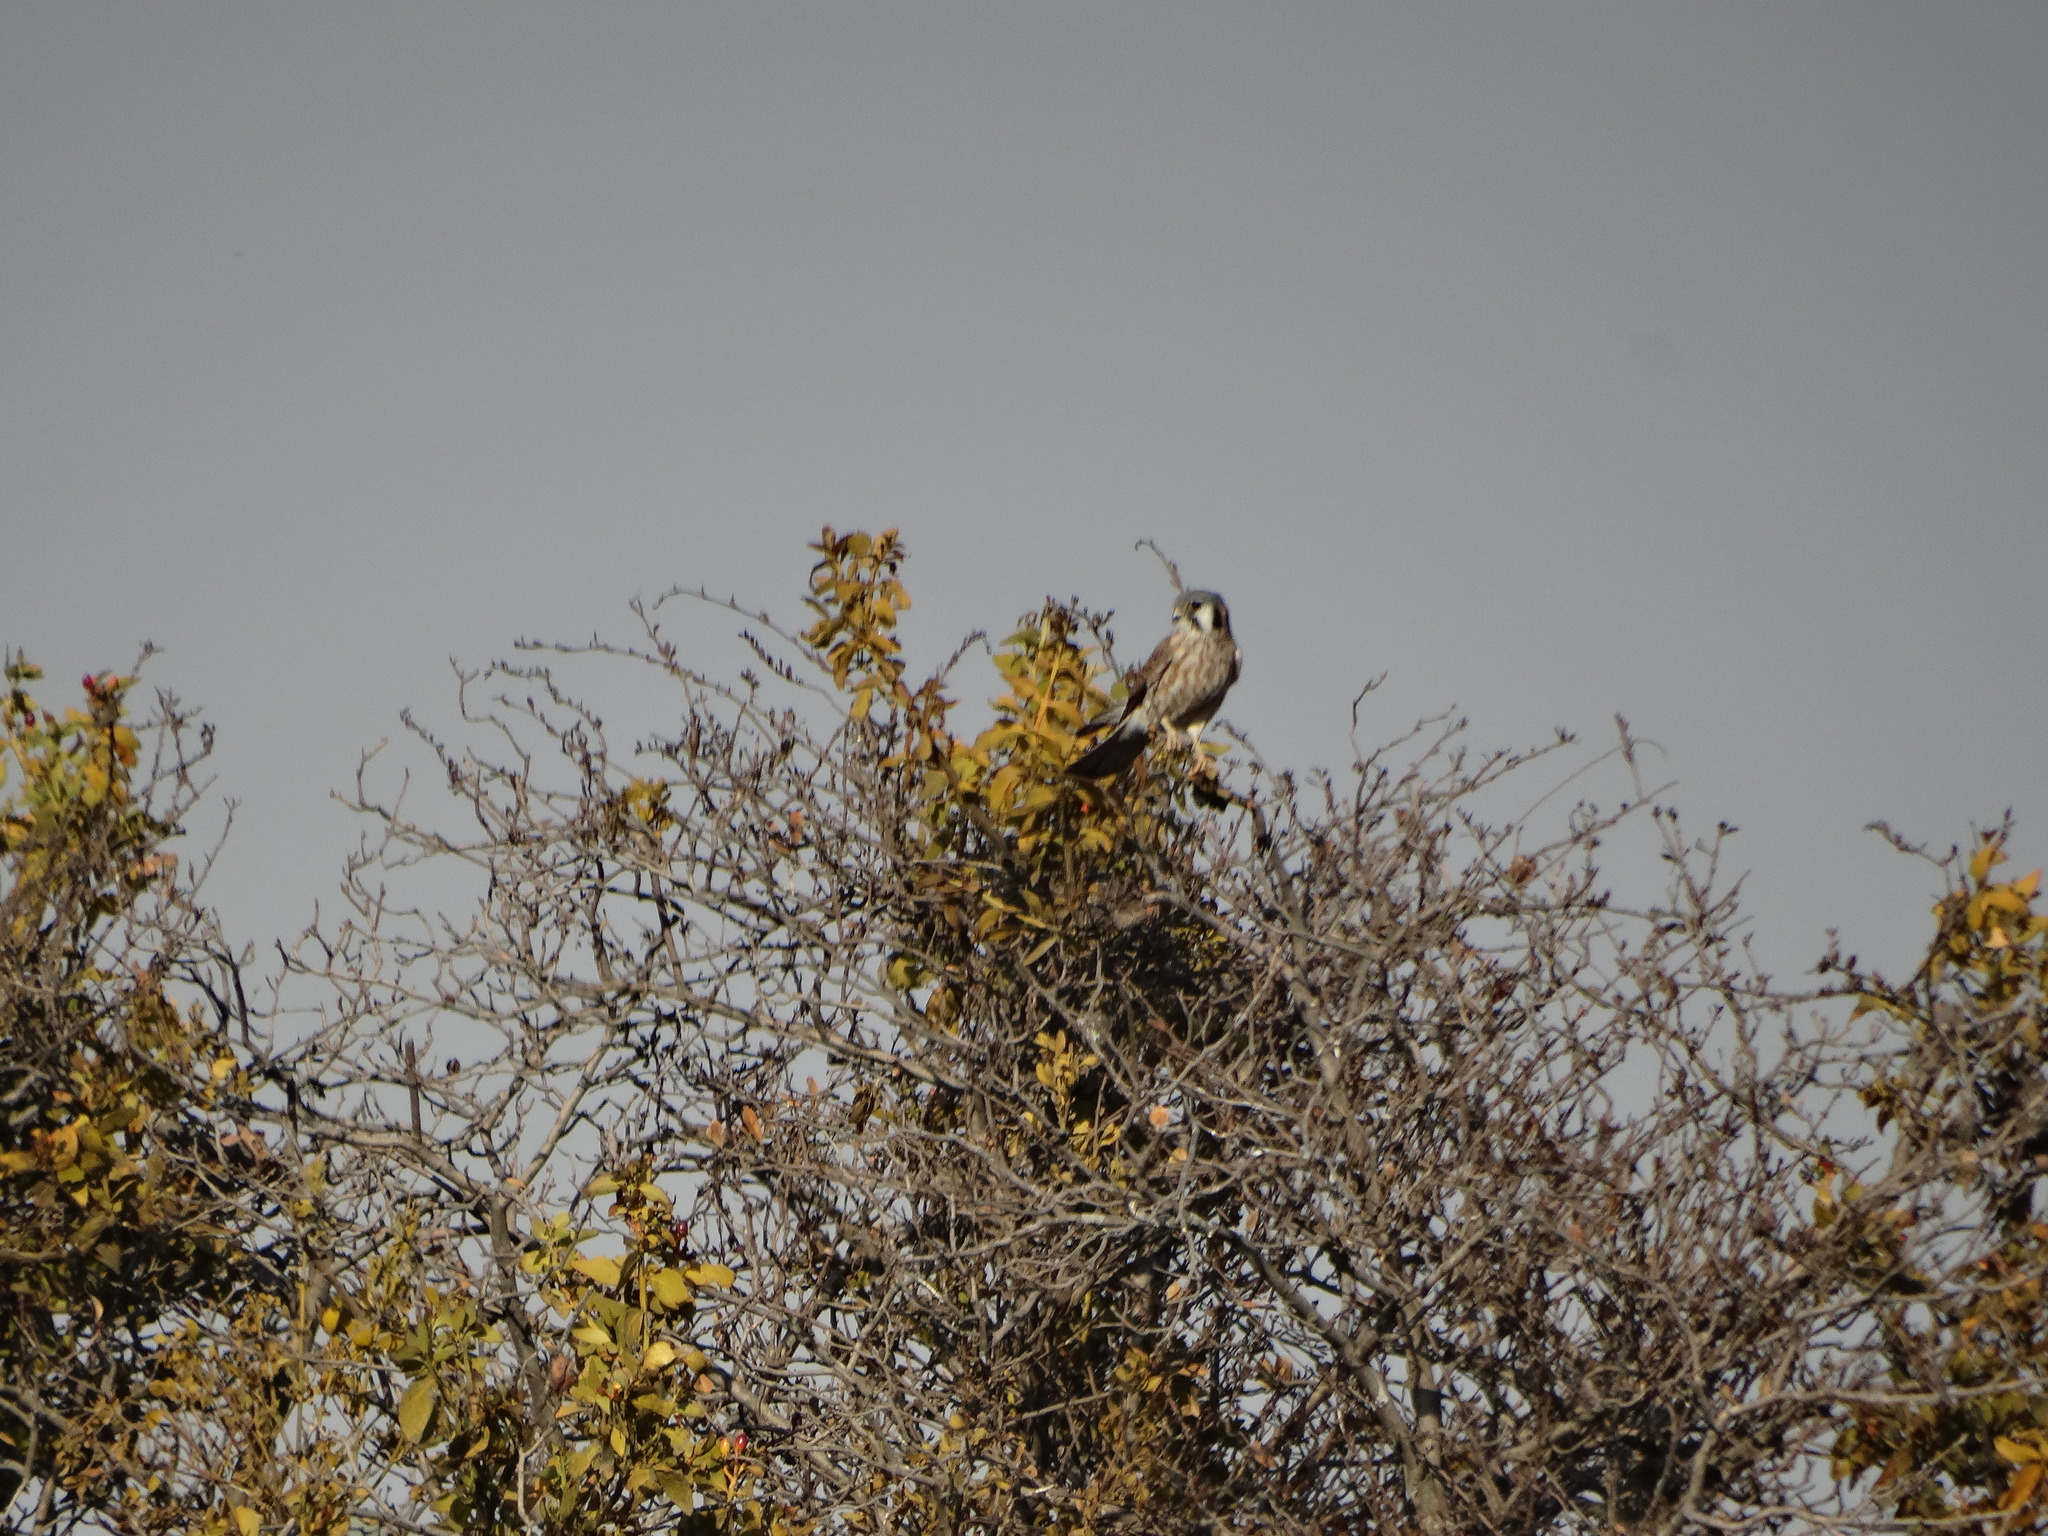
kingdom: Animalia
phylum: Chordata
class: Aves
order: Falconiformes
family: Falconidae
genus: Falco
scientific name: Falco sparverius
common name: American kestrel
